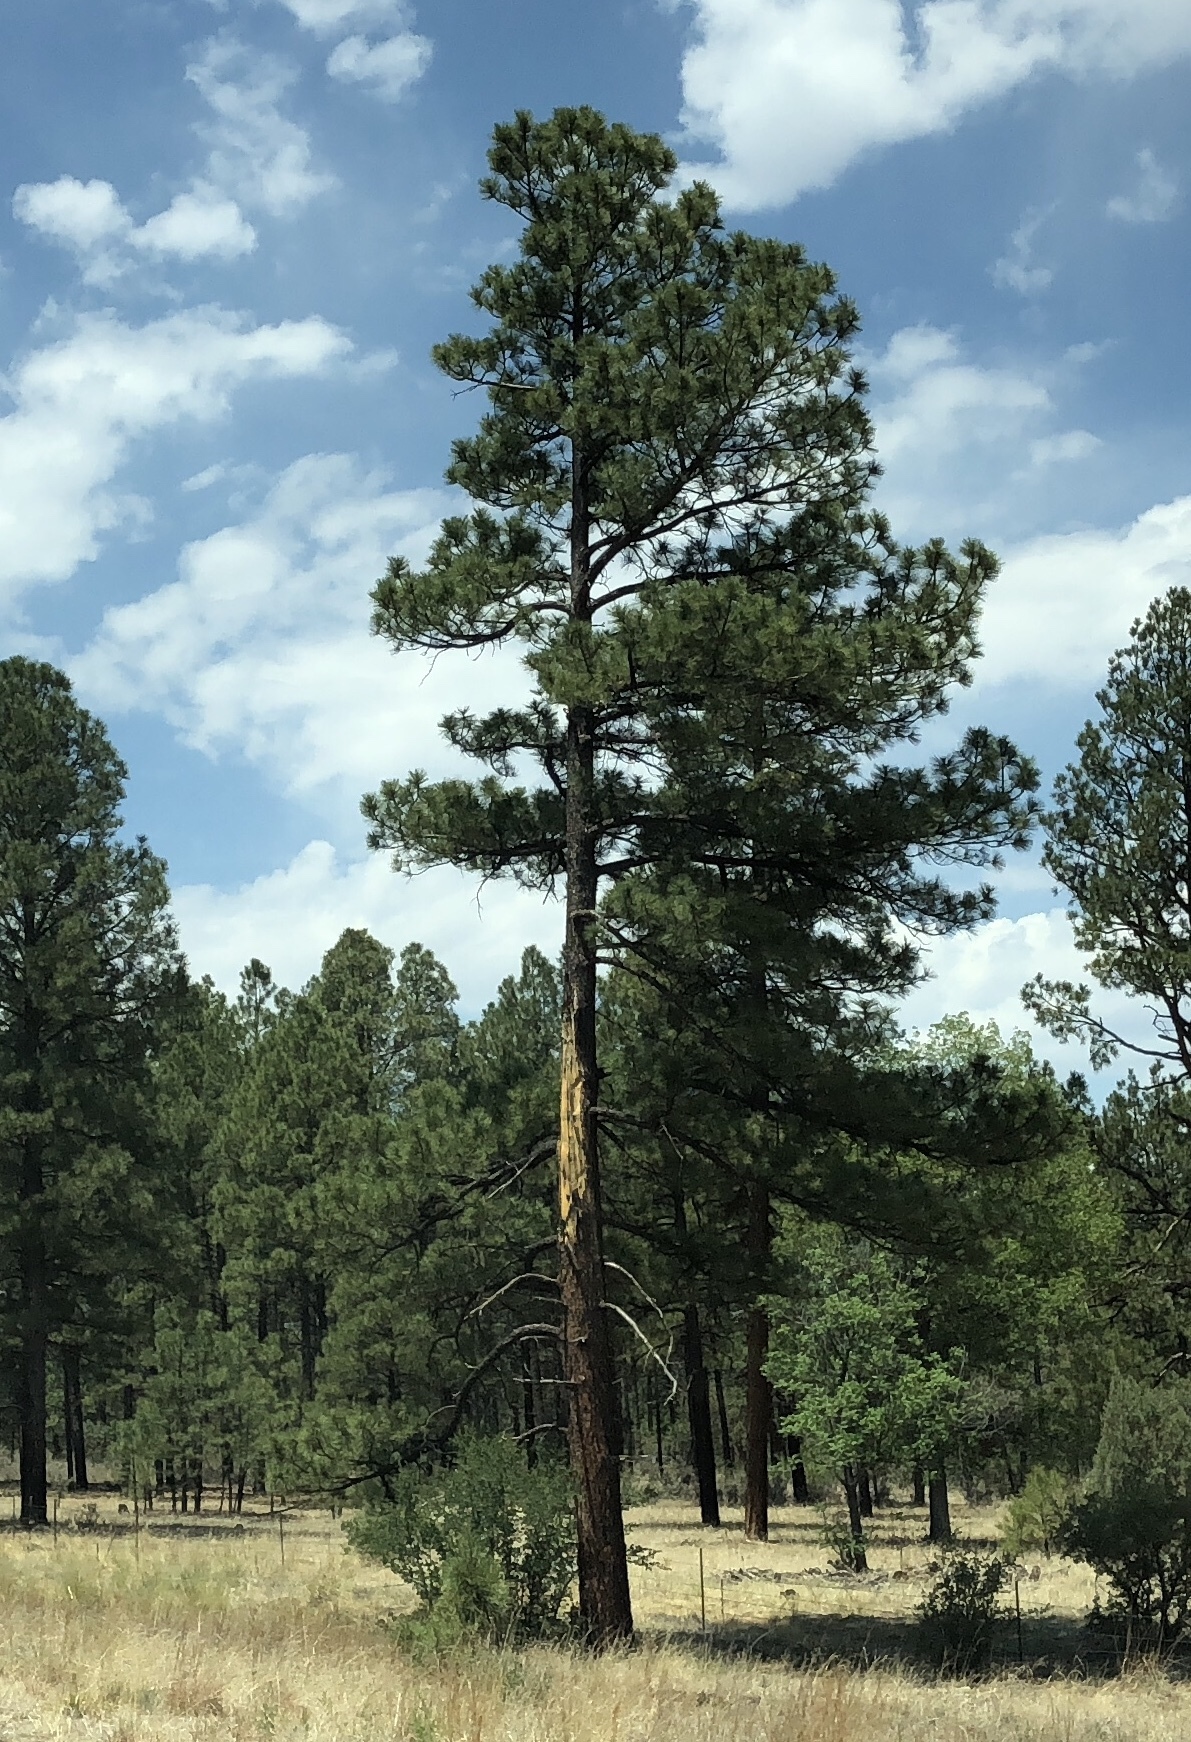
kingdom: Plantae
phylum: Tracheophyta
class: Pinopsida
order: Pinales
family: Pinaceae
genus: Pinus
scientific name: Pinus ponderosa
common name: Western yellow-pine
